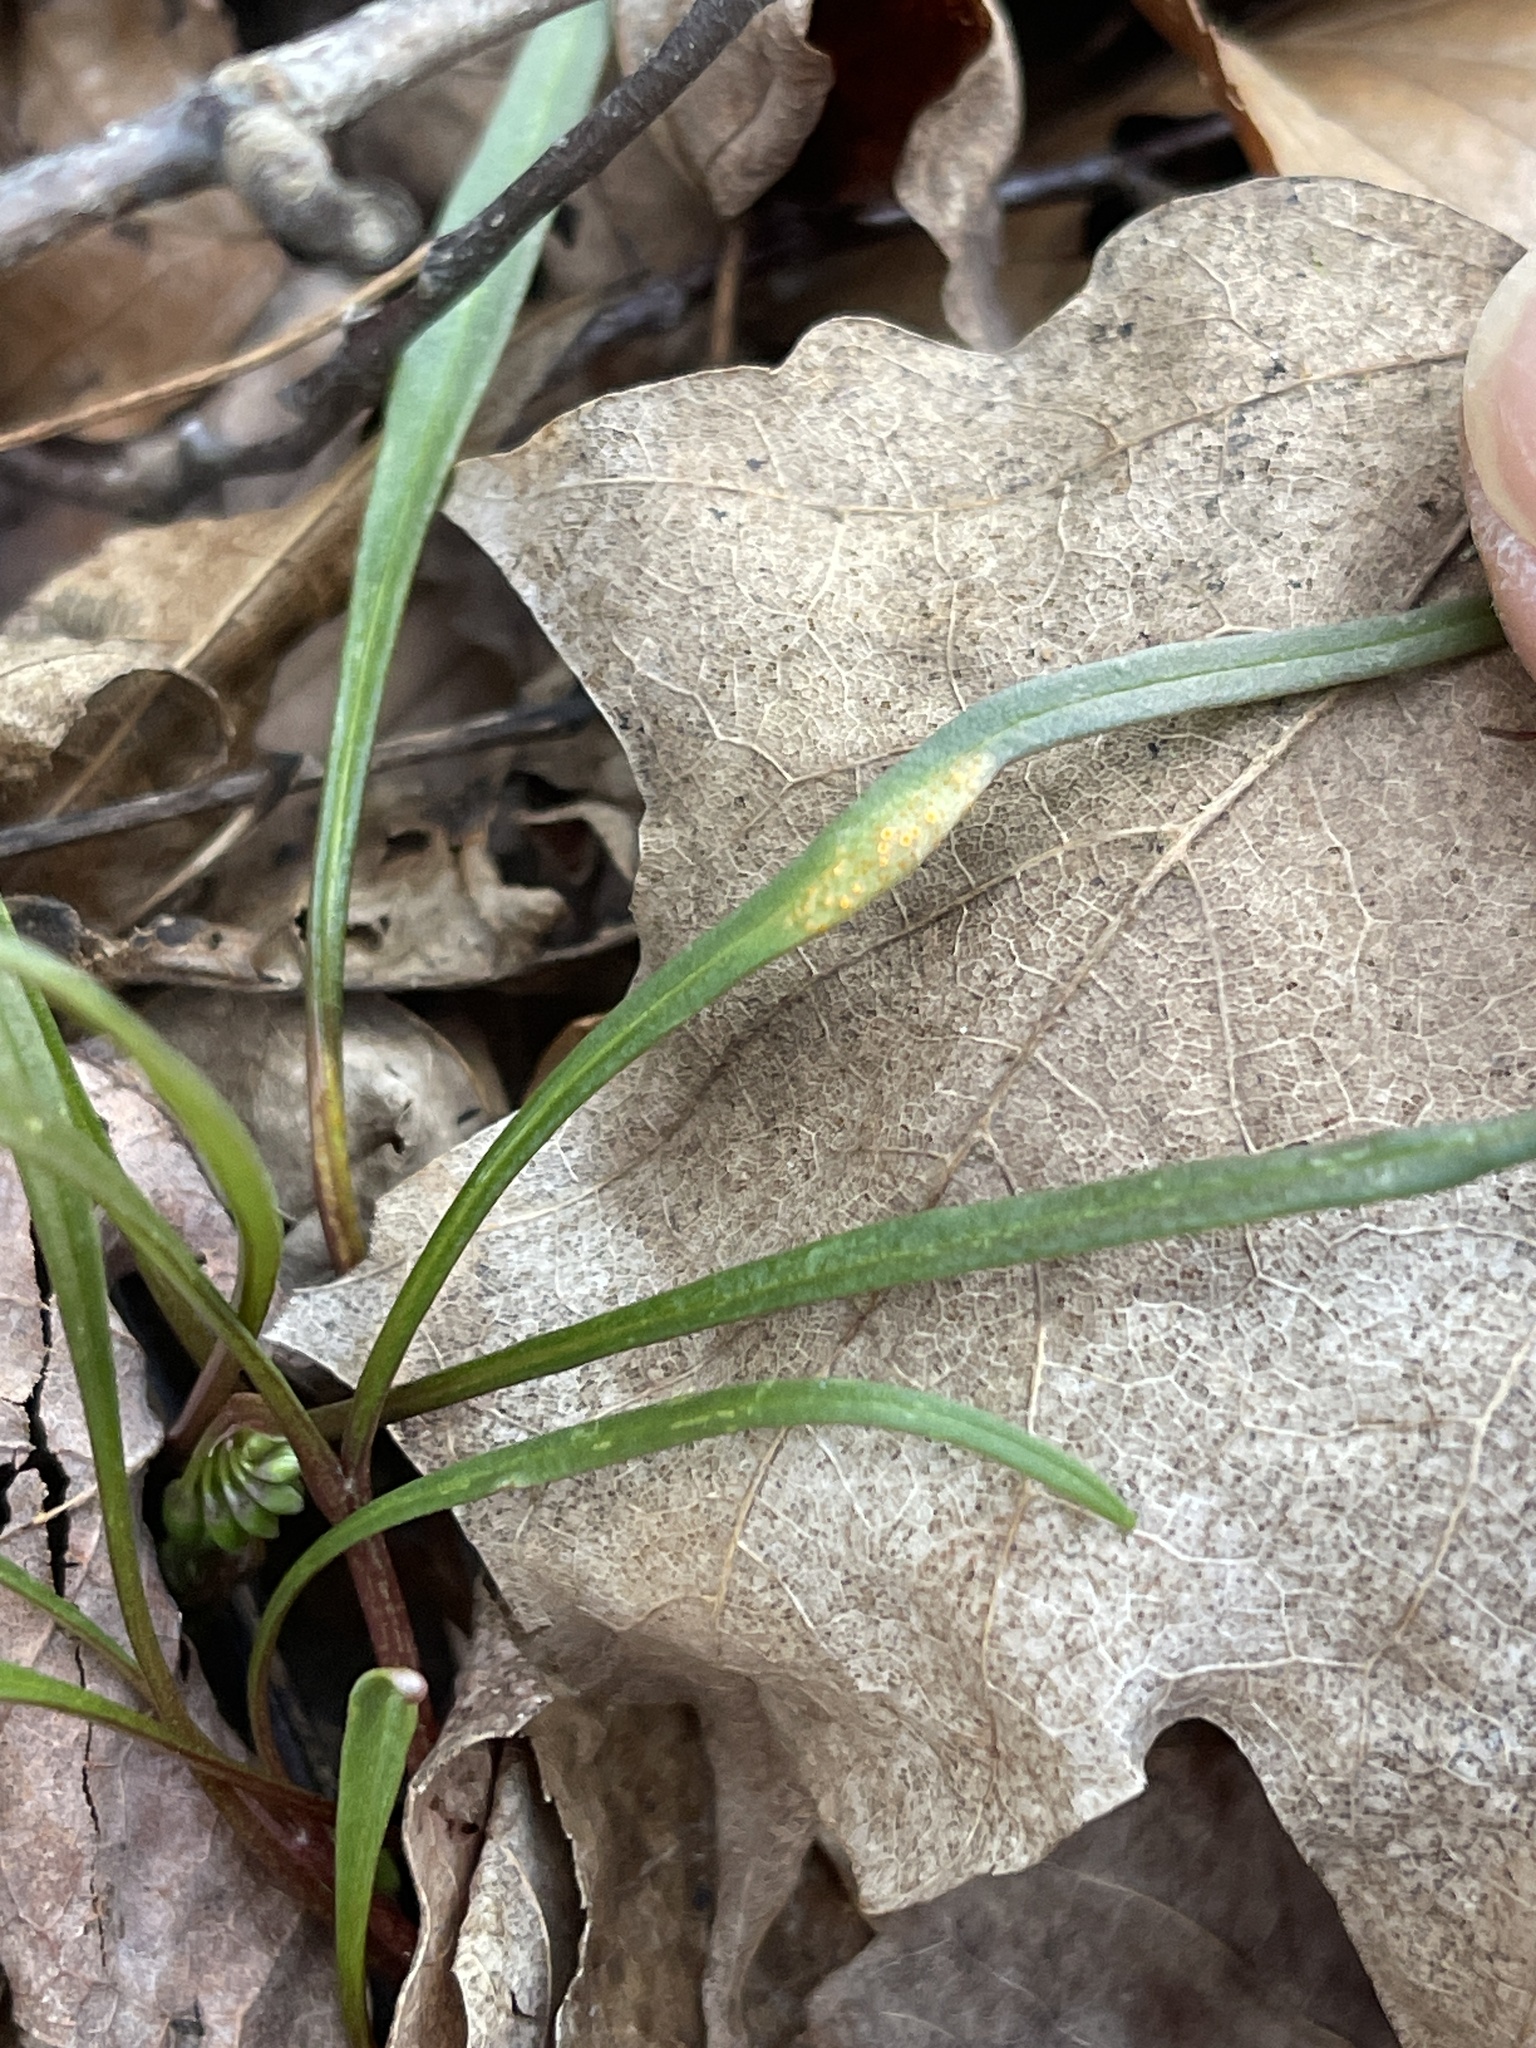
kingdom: Fungi
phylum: Basidiomycota
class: Pucciniomycetes
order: Pucciniales
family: Pucciniaceae
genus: Puccinia
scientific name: Puccinia mariae-wilsoniae
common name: Spring beauty rust
